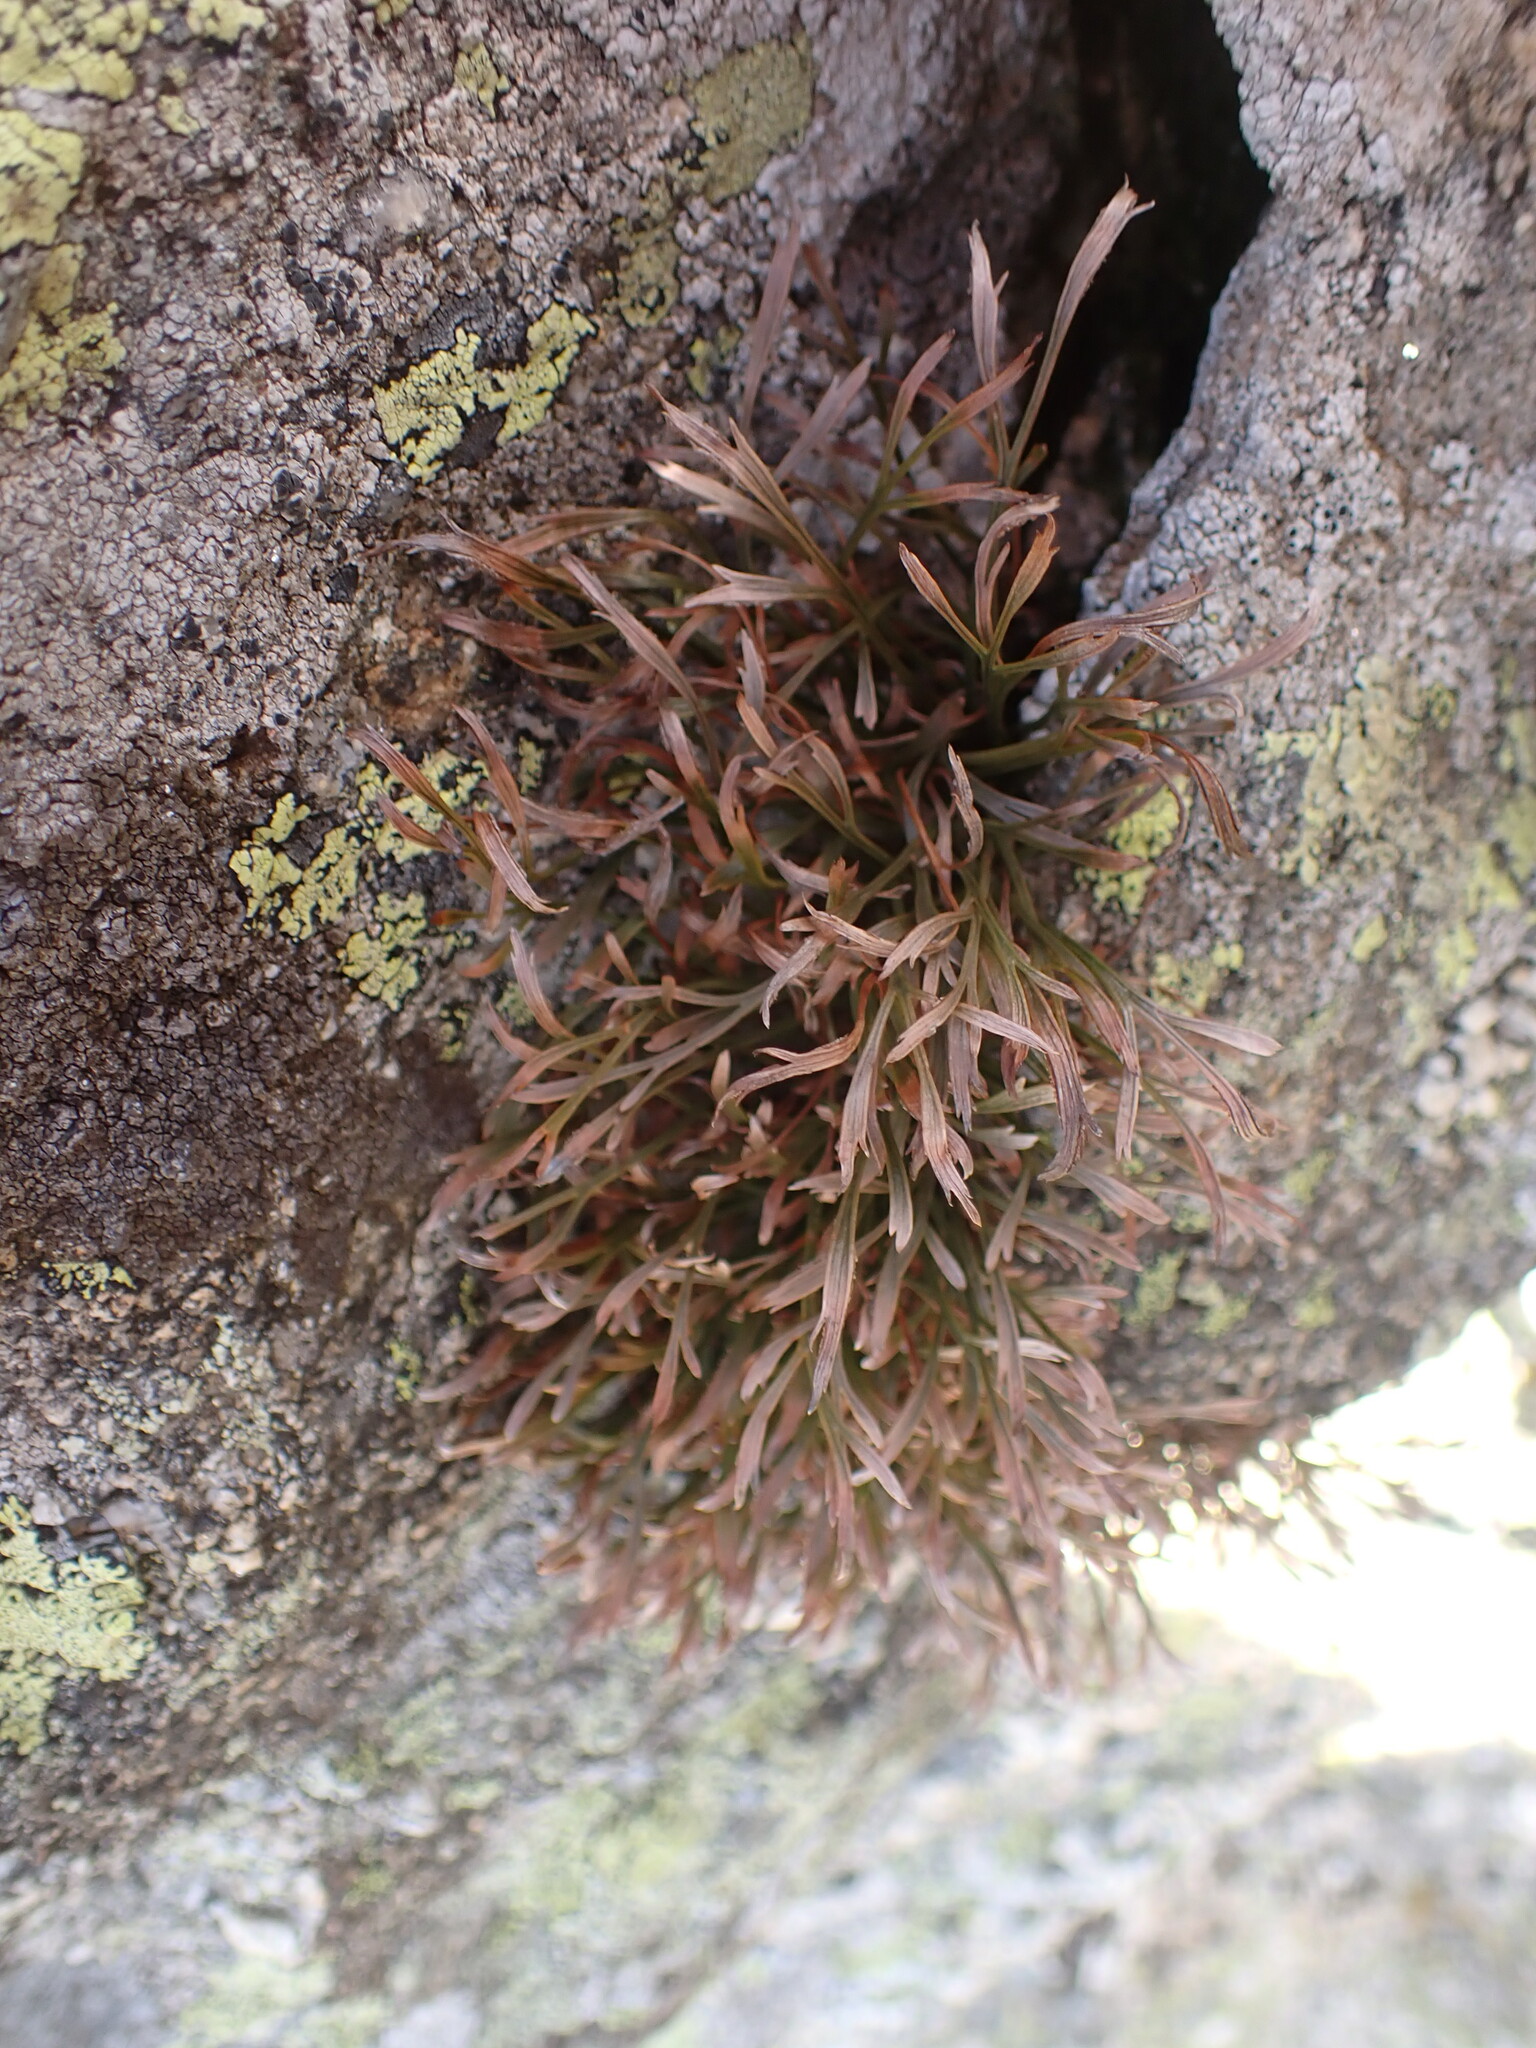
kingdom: Plantae
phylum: Tracheophyta
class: Polypodiopsida
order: Polypodiales
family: Aspleniaceae
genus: Asplenium
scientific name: Asplenium septentrionale
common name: Forked spleenwort
